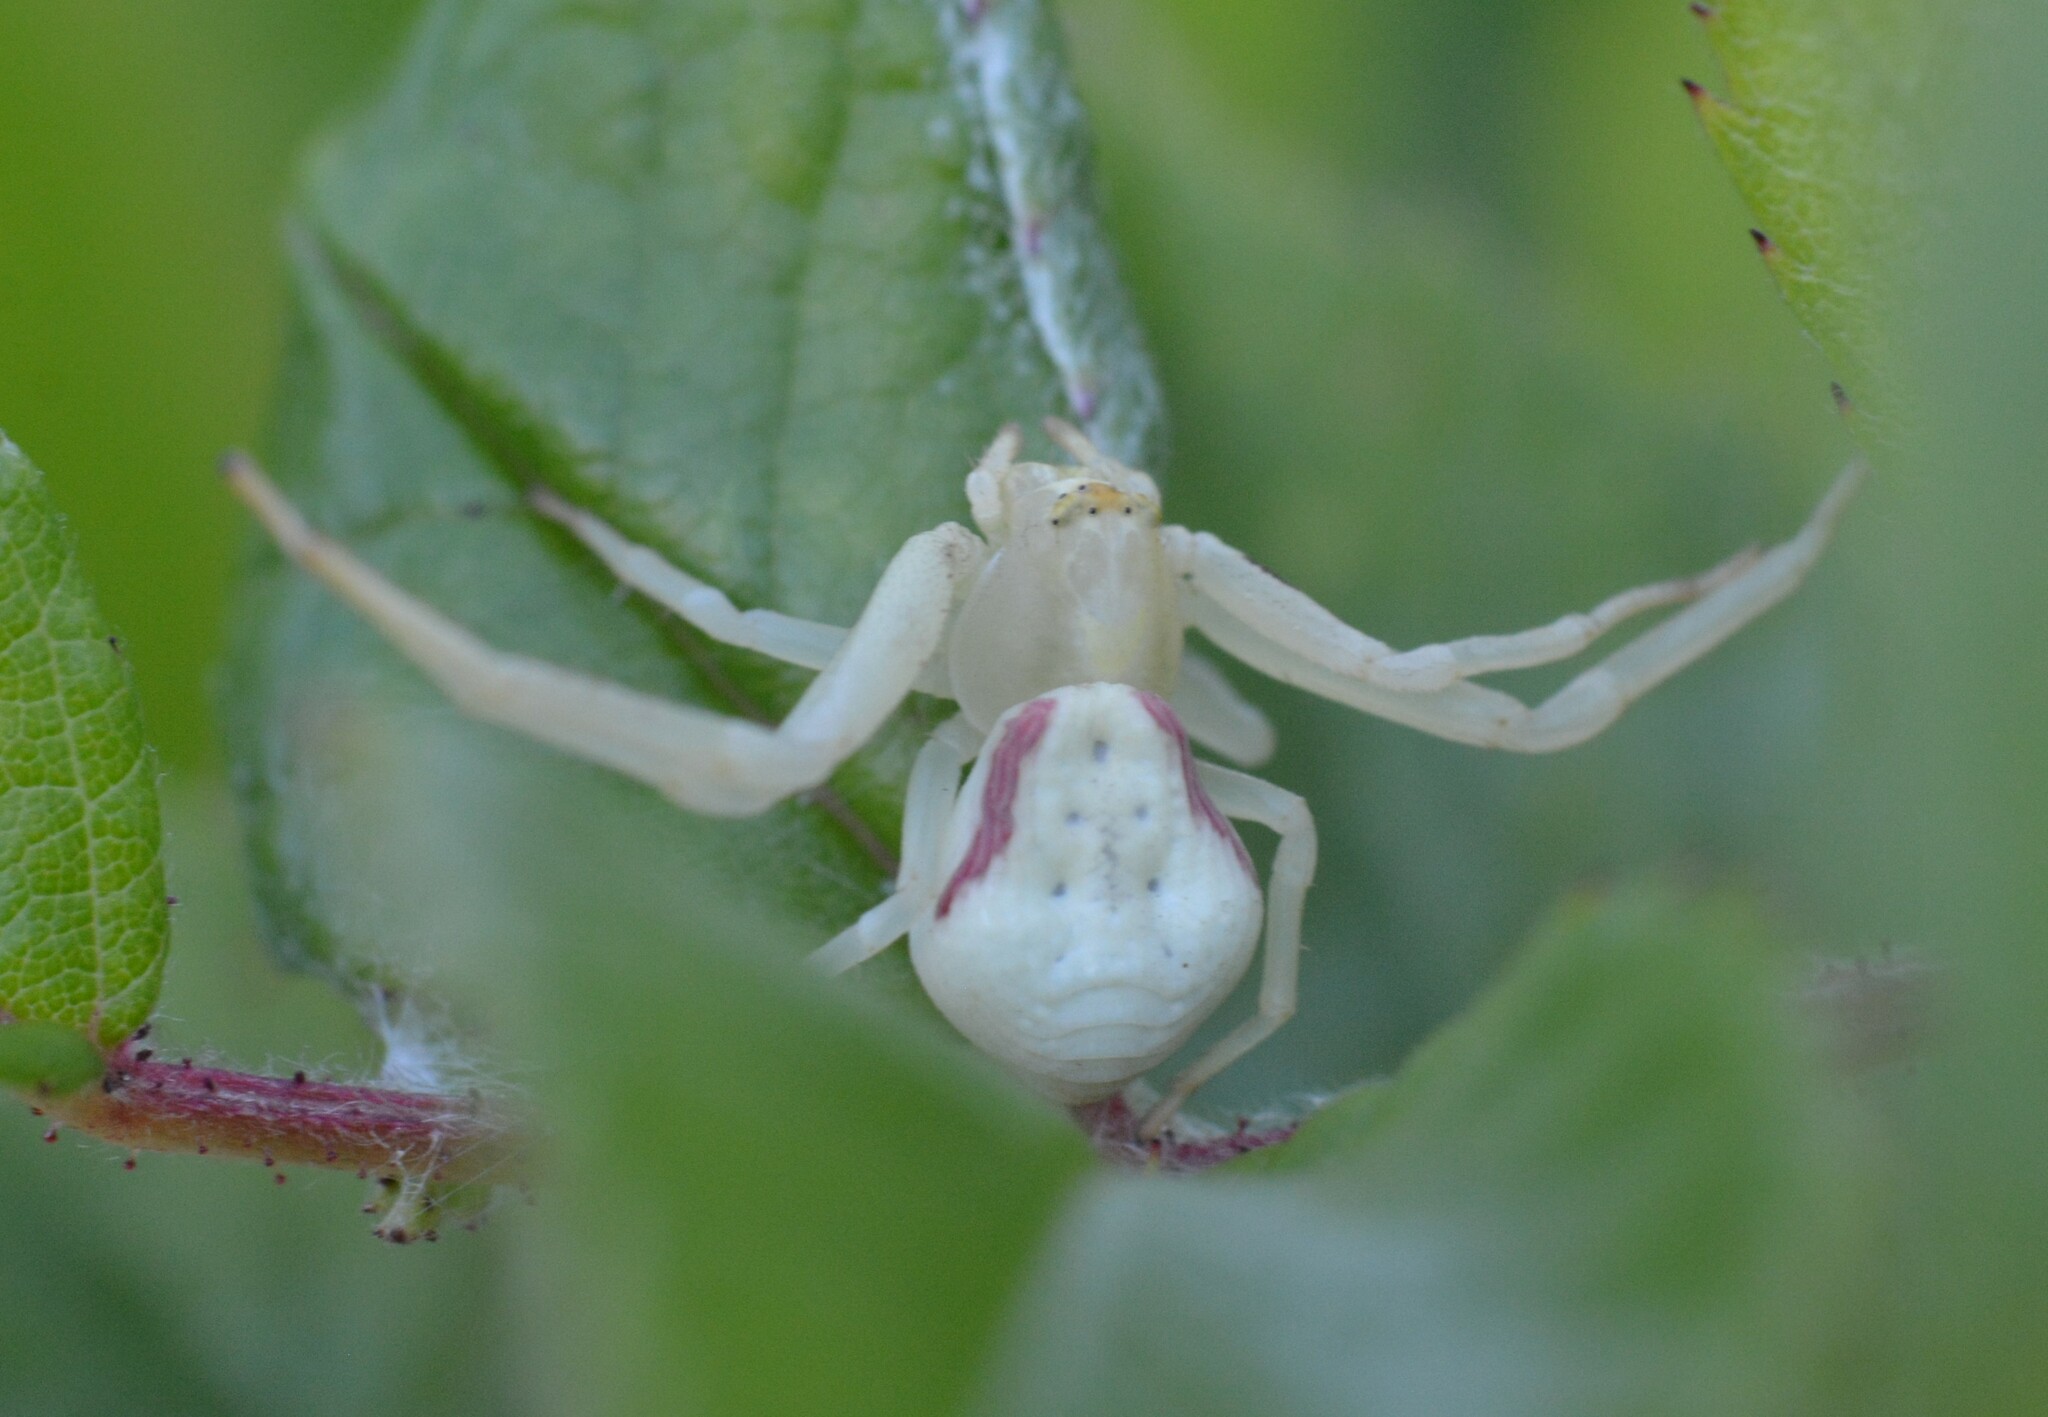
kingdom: Animalia
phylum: Arthropoda
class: Arachnida
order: Araneae
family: Thomisidae
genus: Misumena
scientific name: Misumena vatia
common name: Goldenrod crab spider
